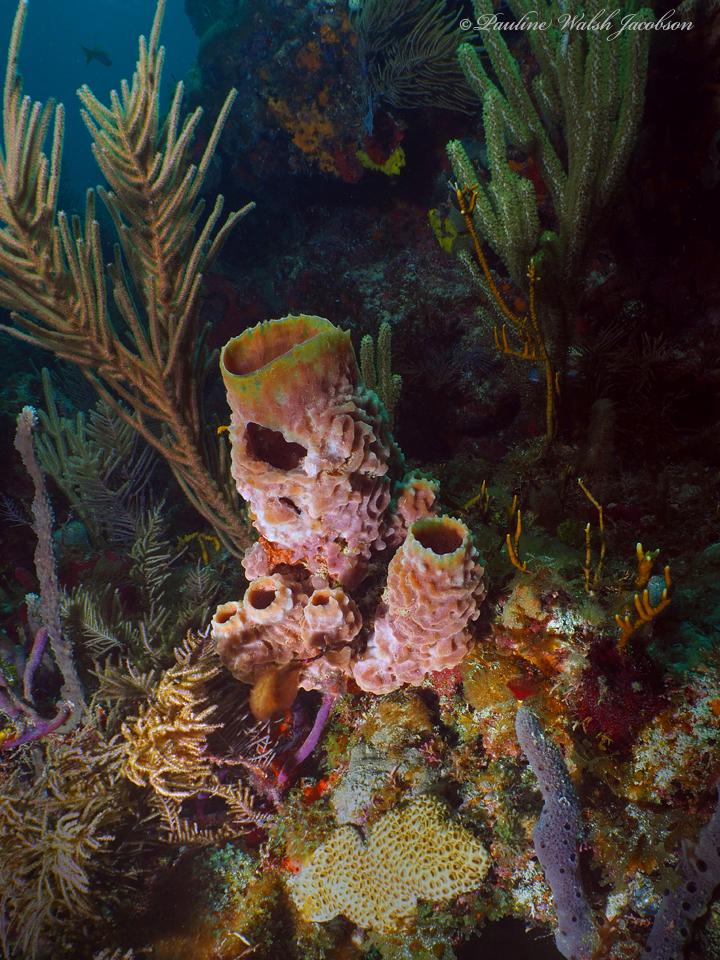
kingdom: Animalia
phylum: Porifera
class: Demospongiae
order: Haplosclerida
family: Callyspongiidae
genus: Callyspongia
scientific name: Callyspongia plicifera
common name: Azure vase sponge
